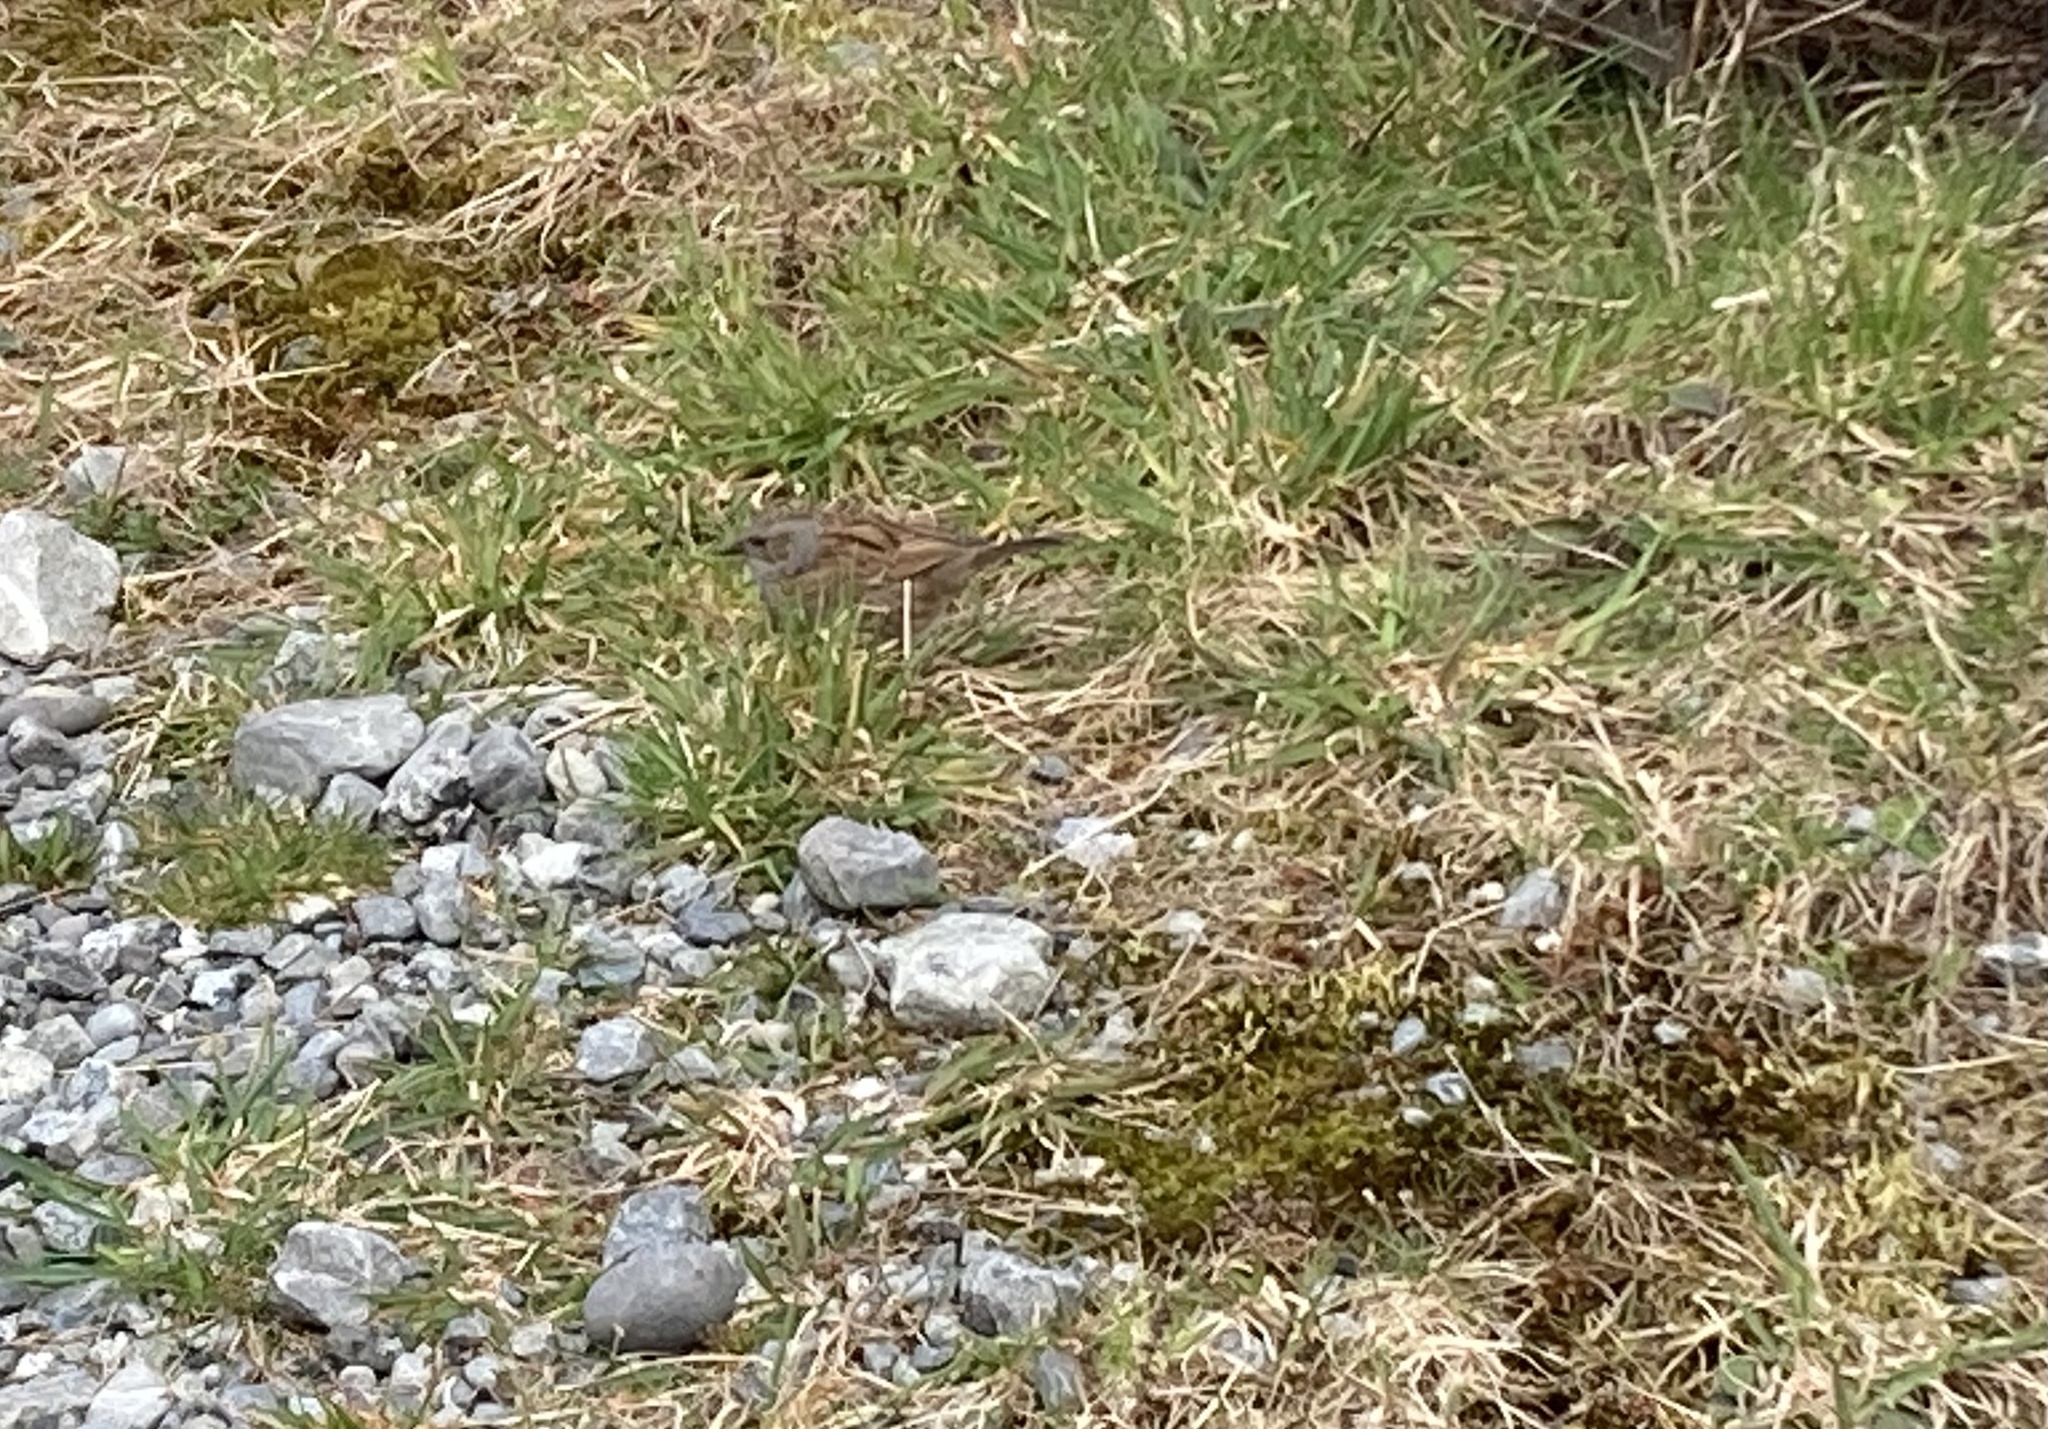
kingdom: Animalia
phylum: Chordata
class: Aves
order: Passeriformes
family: Prunellidae
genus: Prunella
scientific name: Prunella modularis
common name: Dunnock
